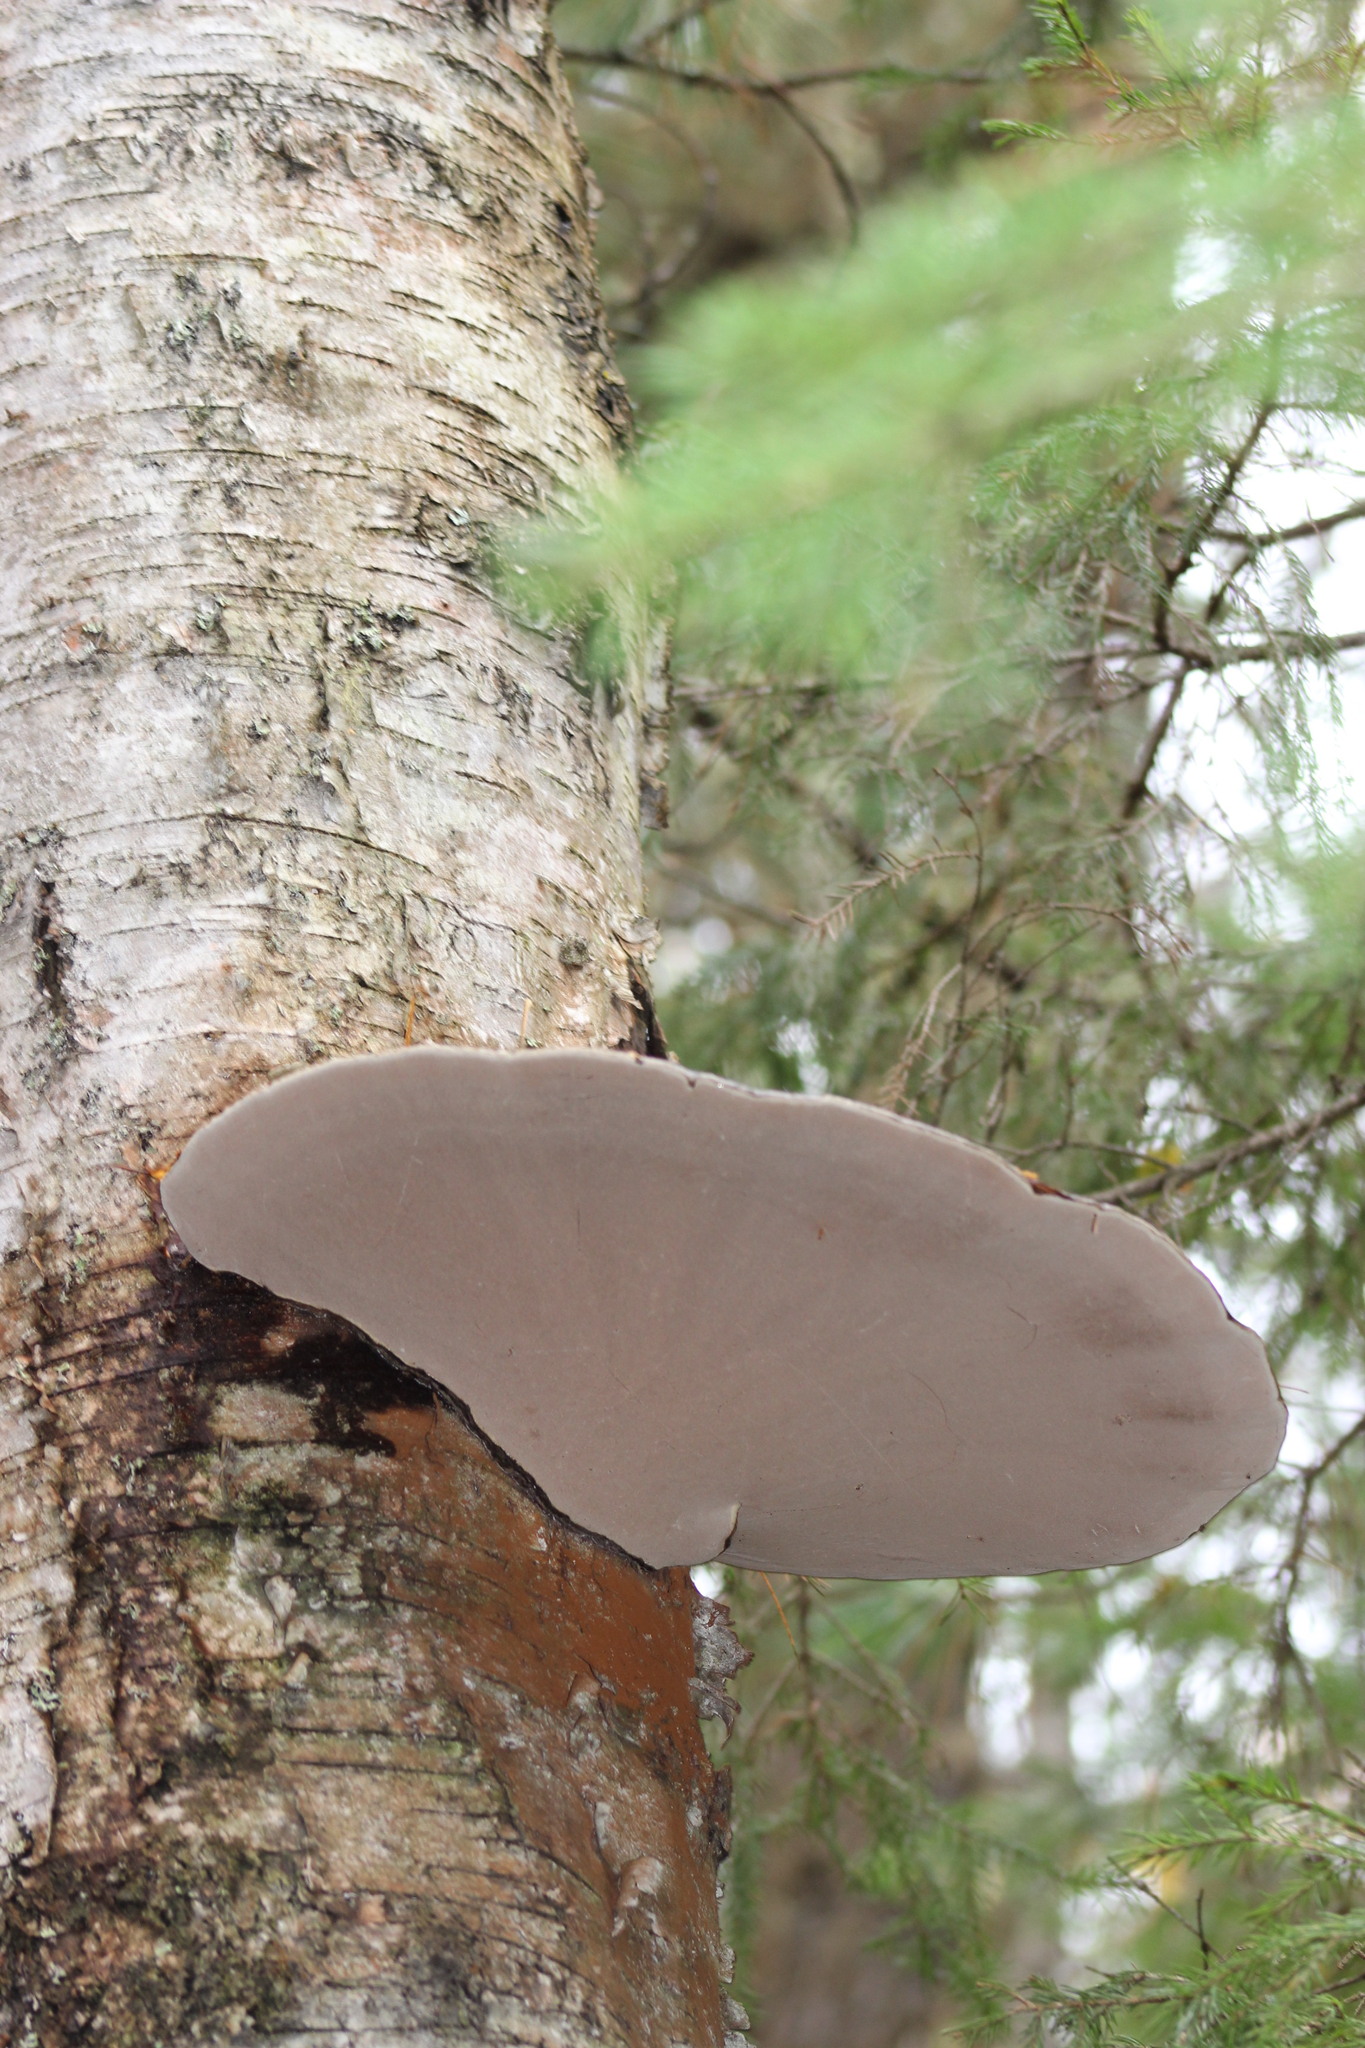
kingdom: Fungi
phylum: Basidiomycota
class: Agaricomycetes
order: Polyporales
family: Polyporaceae
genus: Ganoderma
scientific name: Ganoderma applanatum
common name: Artist's bracket
